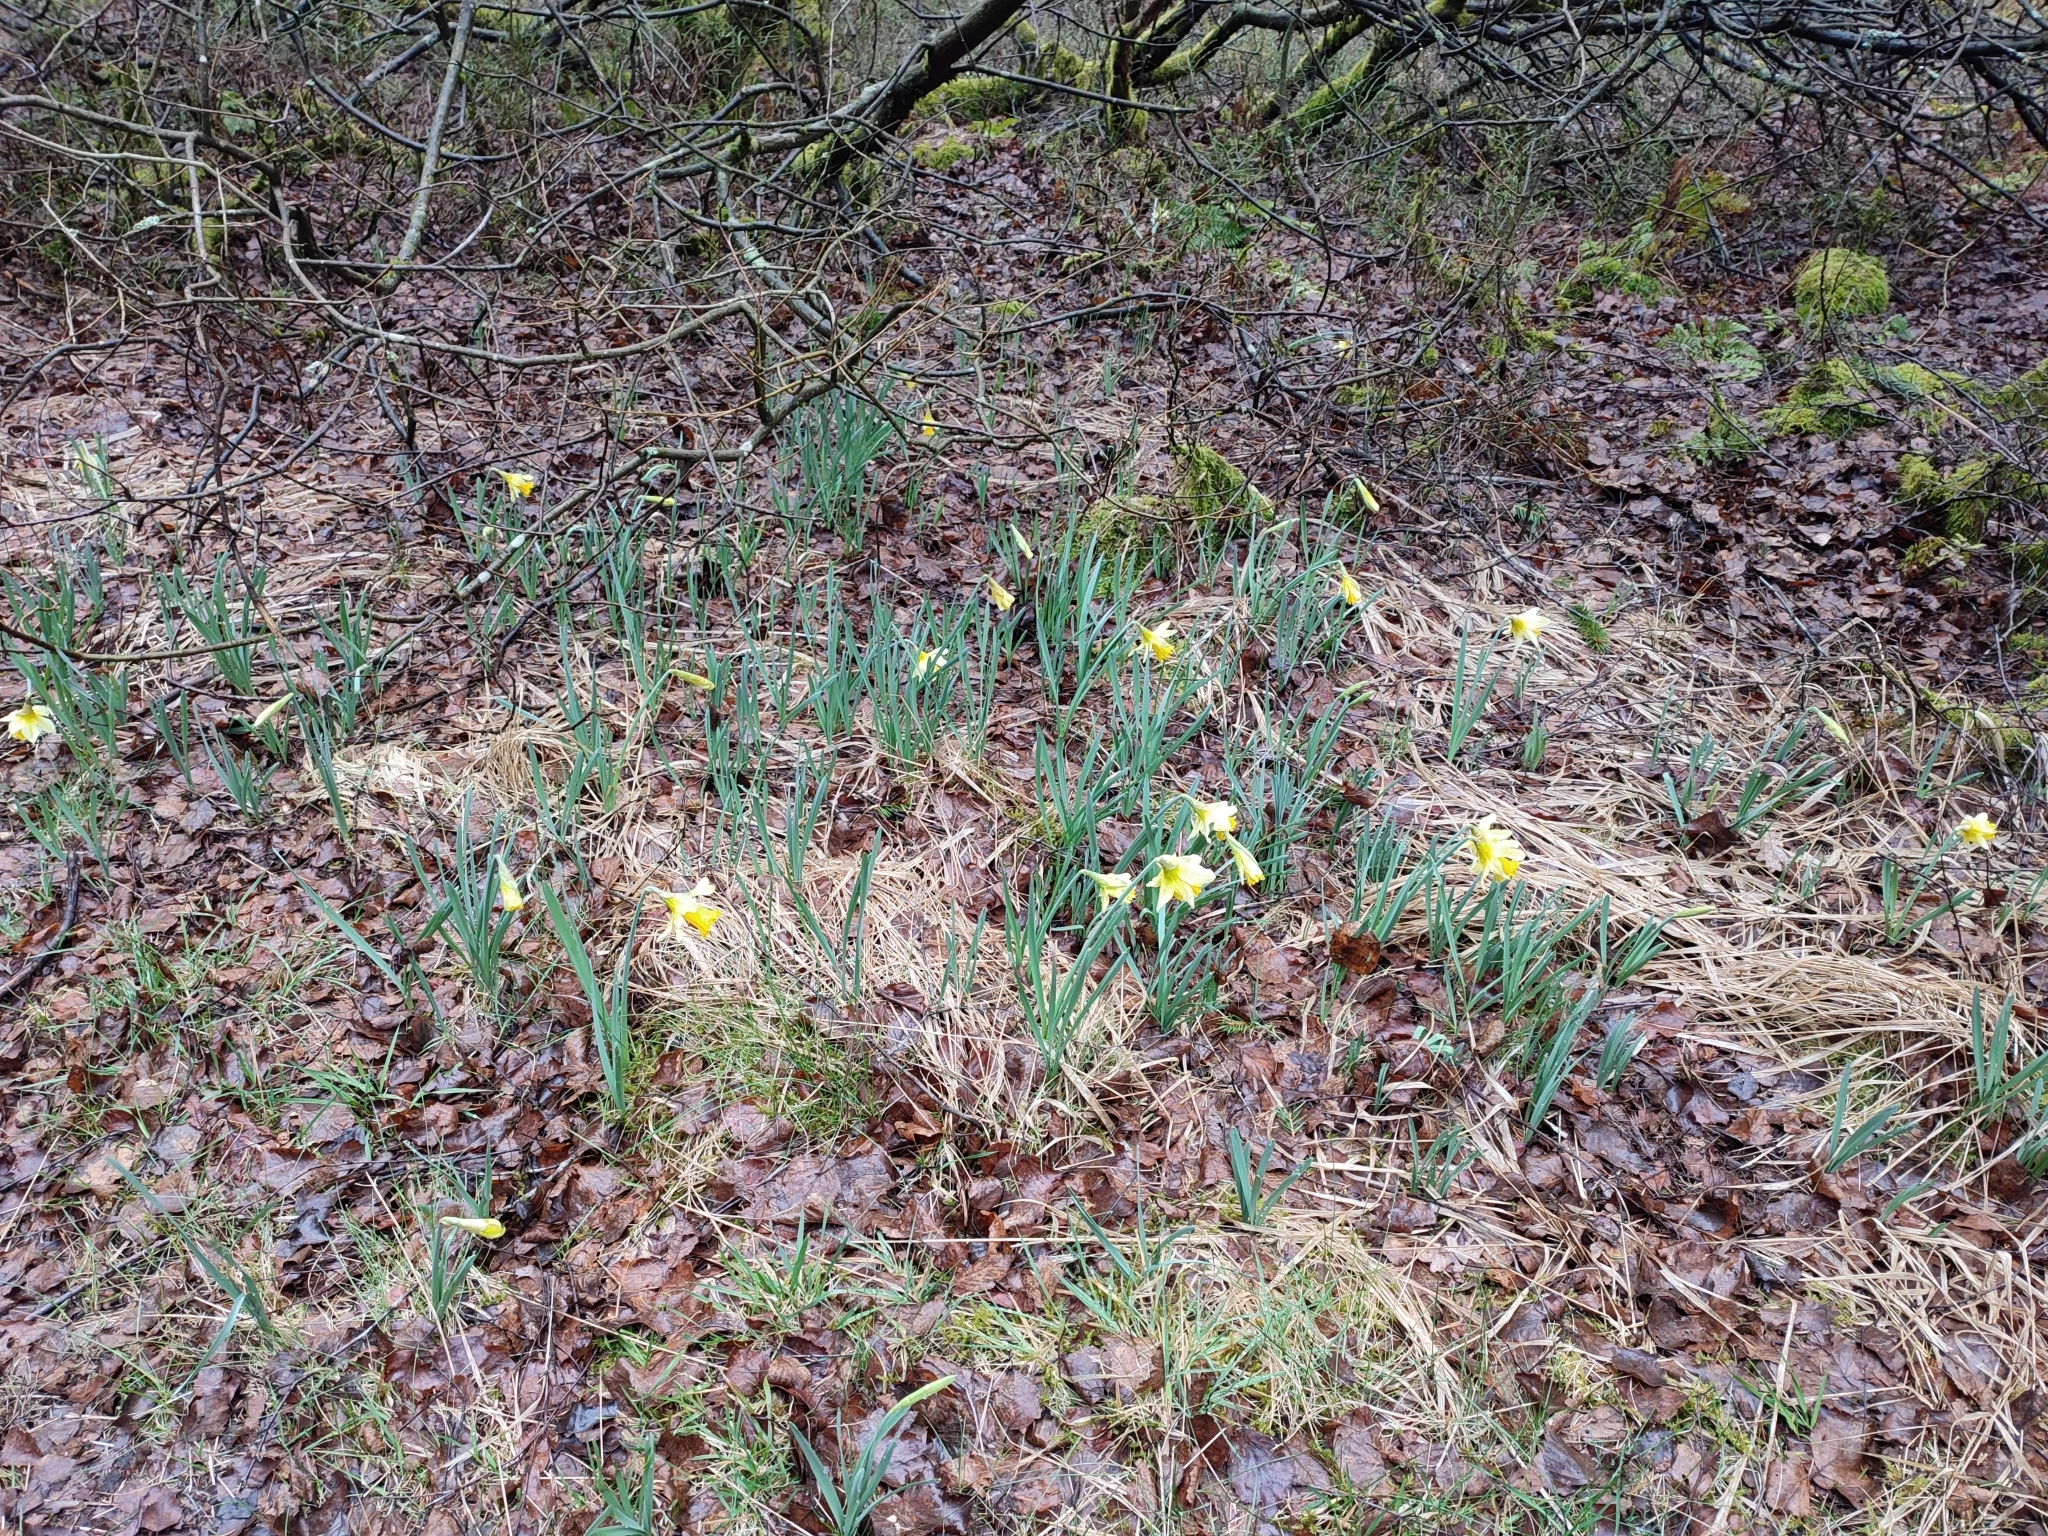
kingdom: Plantae
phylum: Tracheophyta
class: Liliopsida
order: Asparagales
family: Amaryllidaceae
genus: Narcissus
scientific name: Narcissus pseudonarcissus
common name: Daffodil
